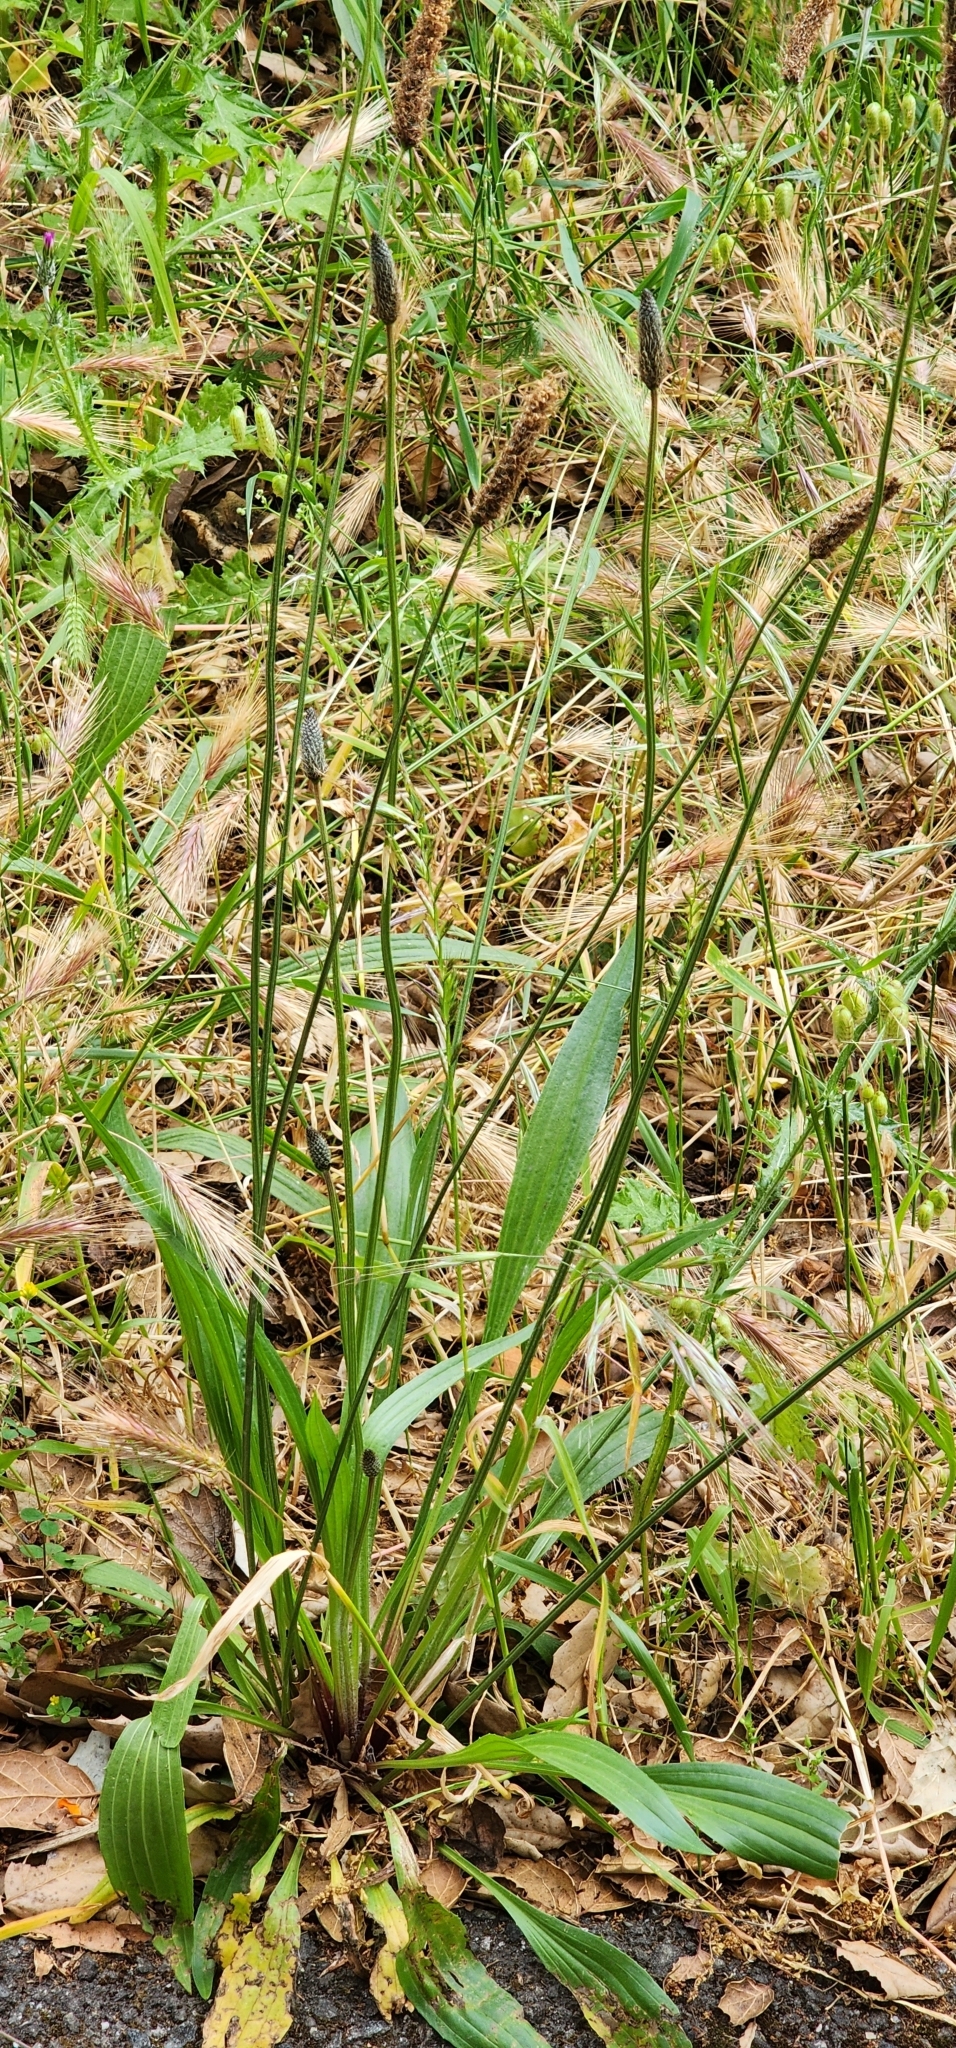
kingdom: Plantae
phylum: Tracheophyta
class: Magnoliopsida
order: Lamiales
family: Plantaginaceae
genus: Plantago
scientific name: Plantago lanceolata
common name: Ribwort plantain
